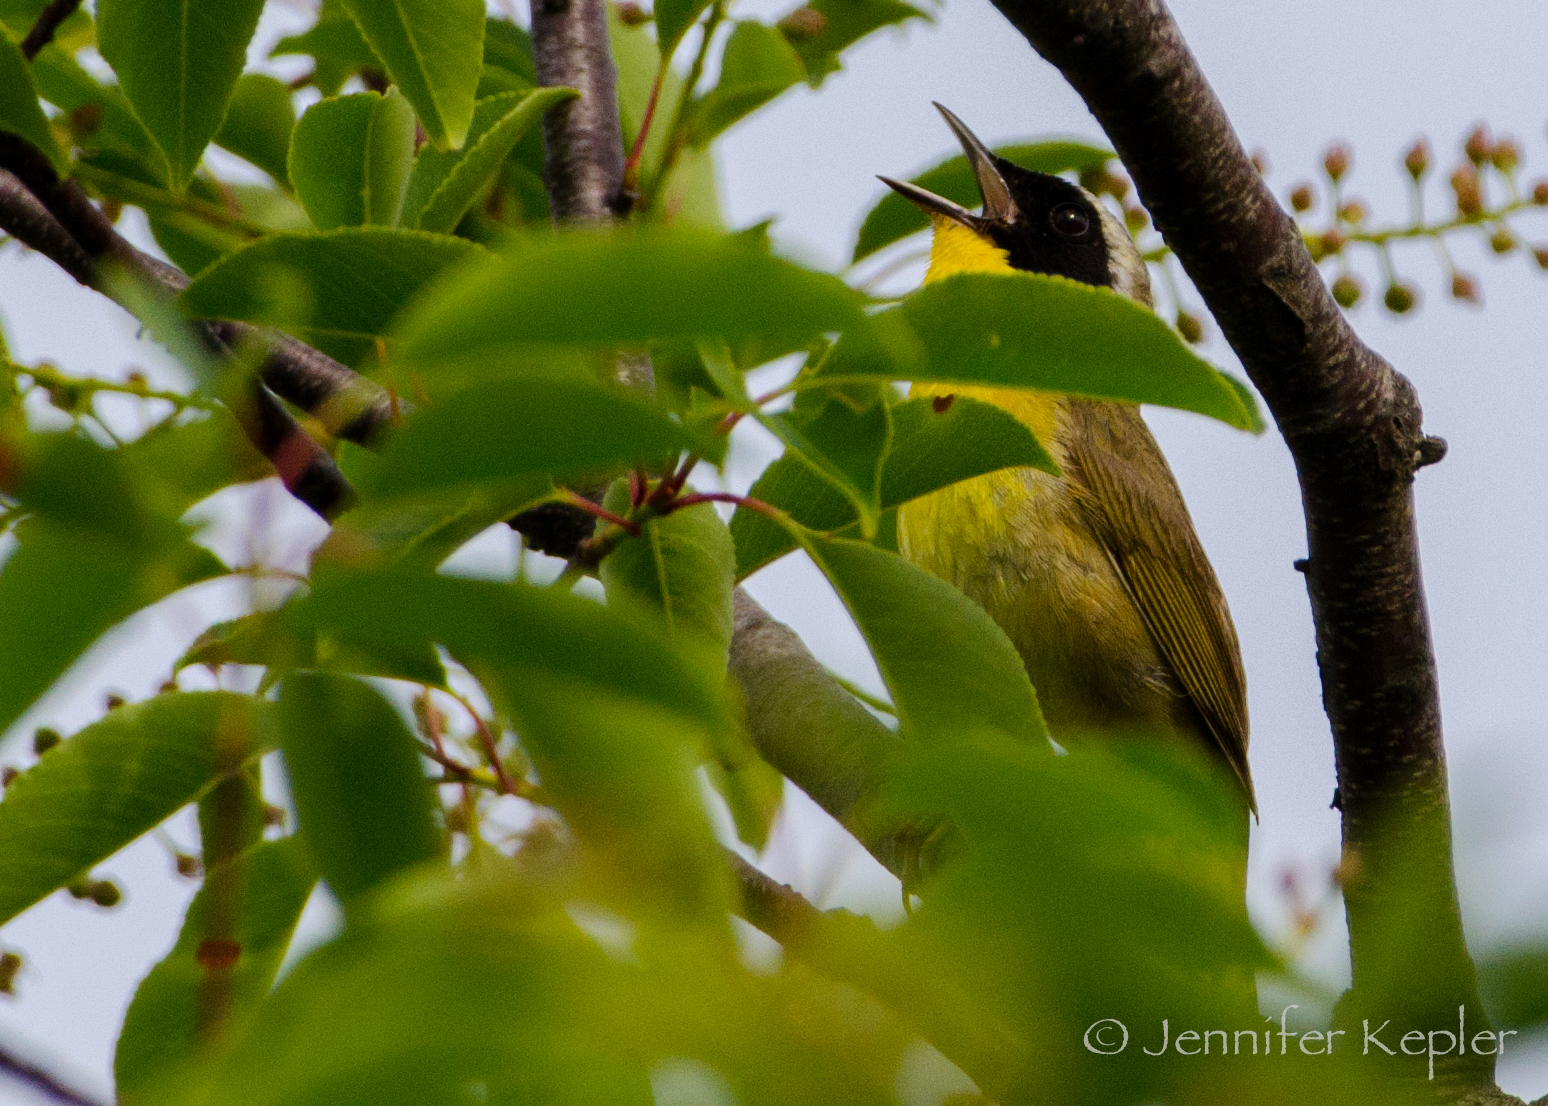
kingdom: Animalia
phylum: Chordata
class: Aves
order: Passeriformes
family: Parulidae
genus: Geothlypis
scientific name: Geothlypis trichas
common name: Common yellowthroat
